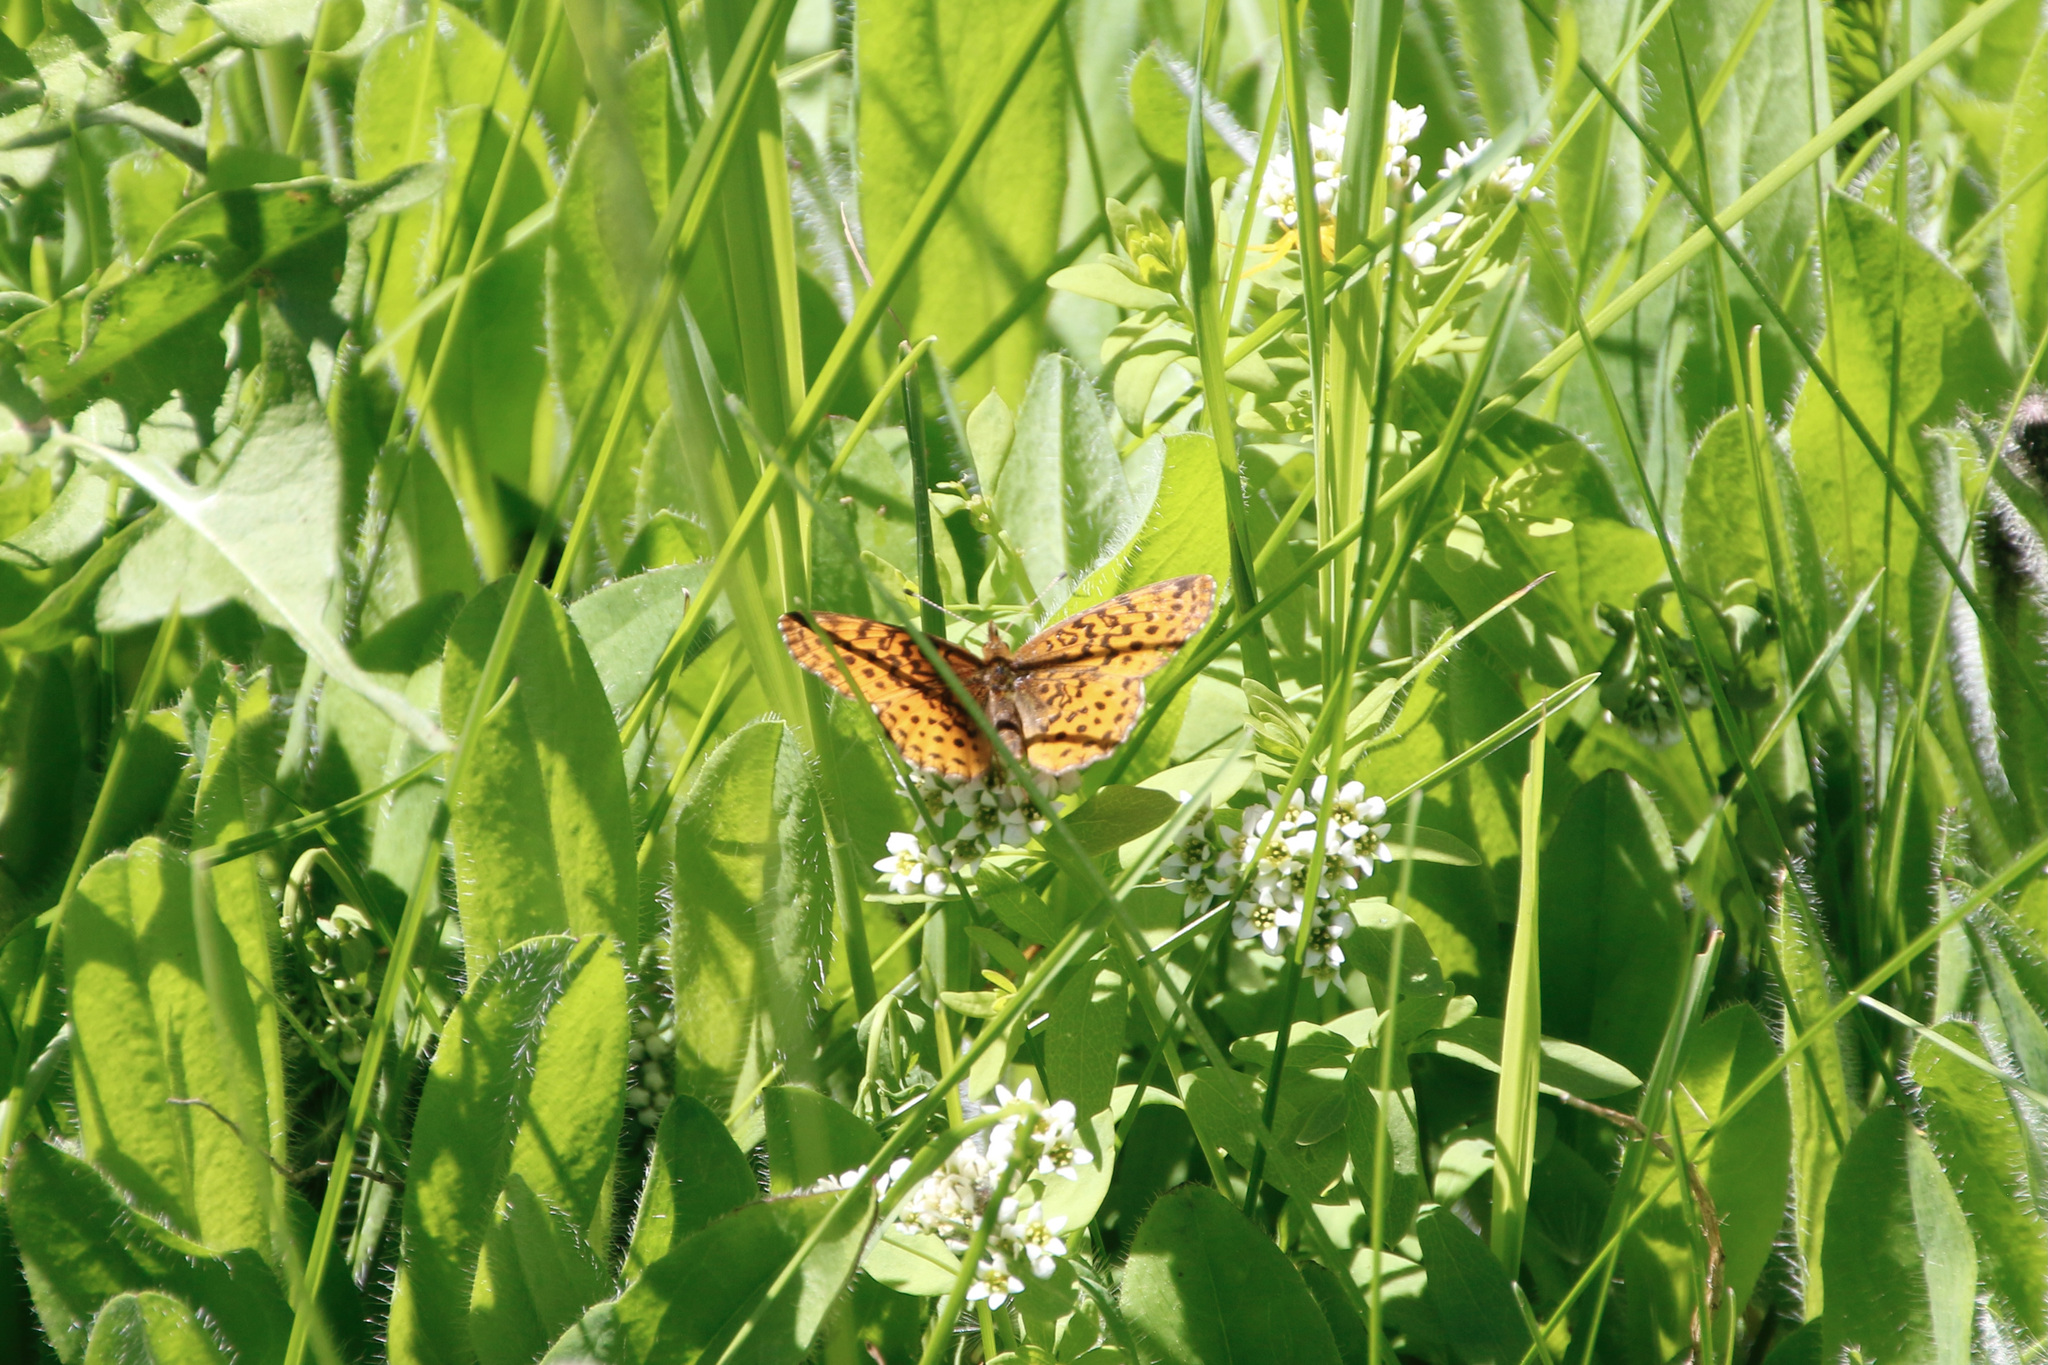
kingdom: Animalia
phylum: Arthropoda
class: Insecta
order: Lepidoptera
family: Nymphalidae
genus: Clossiana
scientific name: Clossiana toddi
